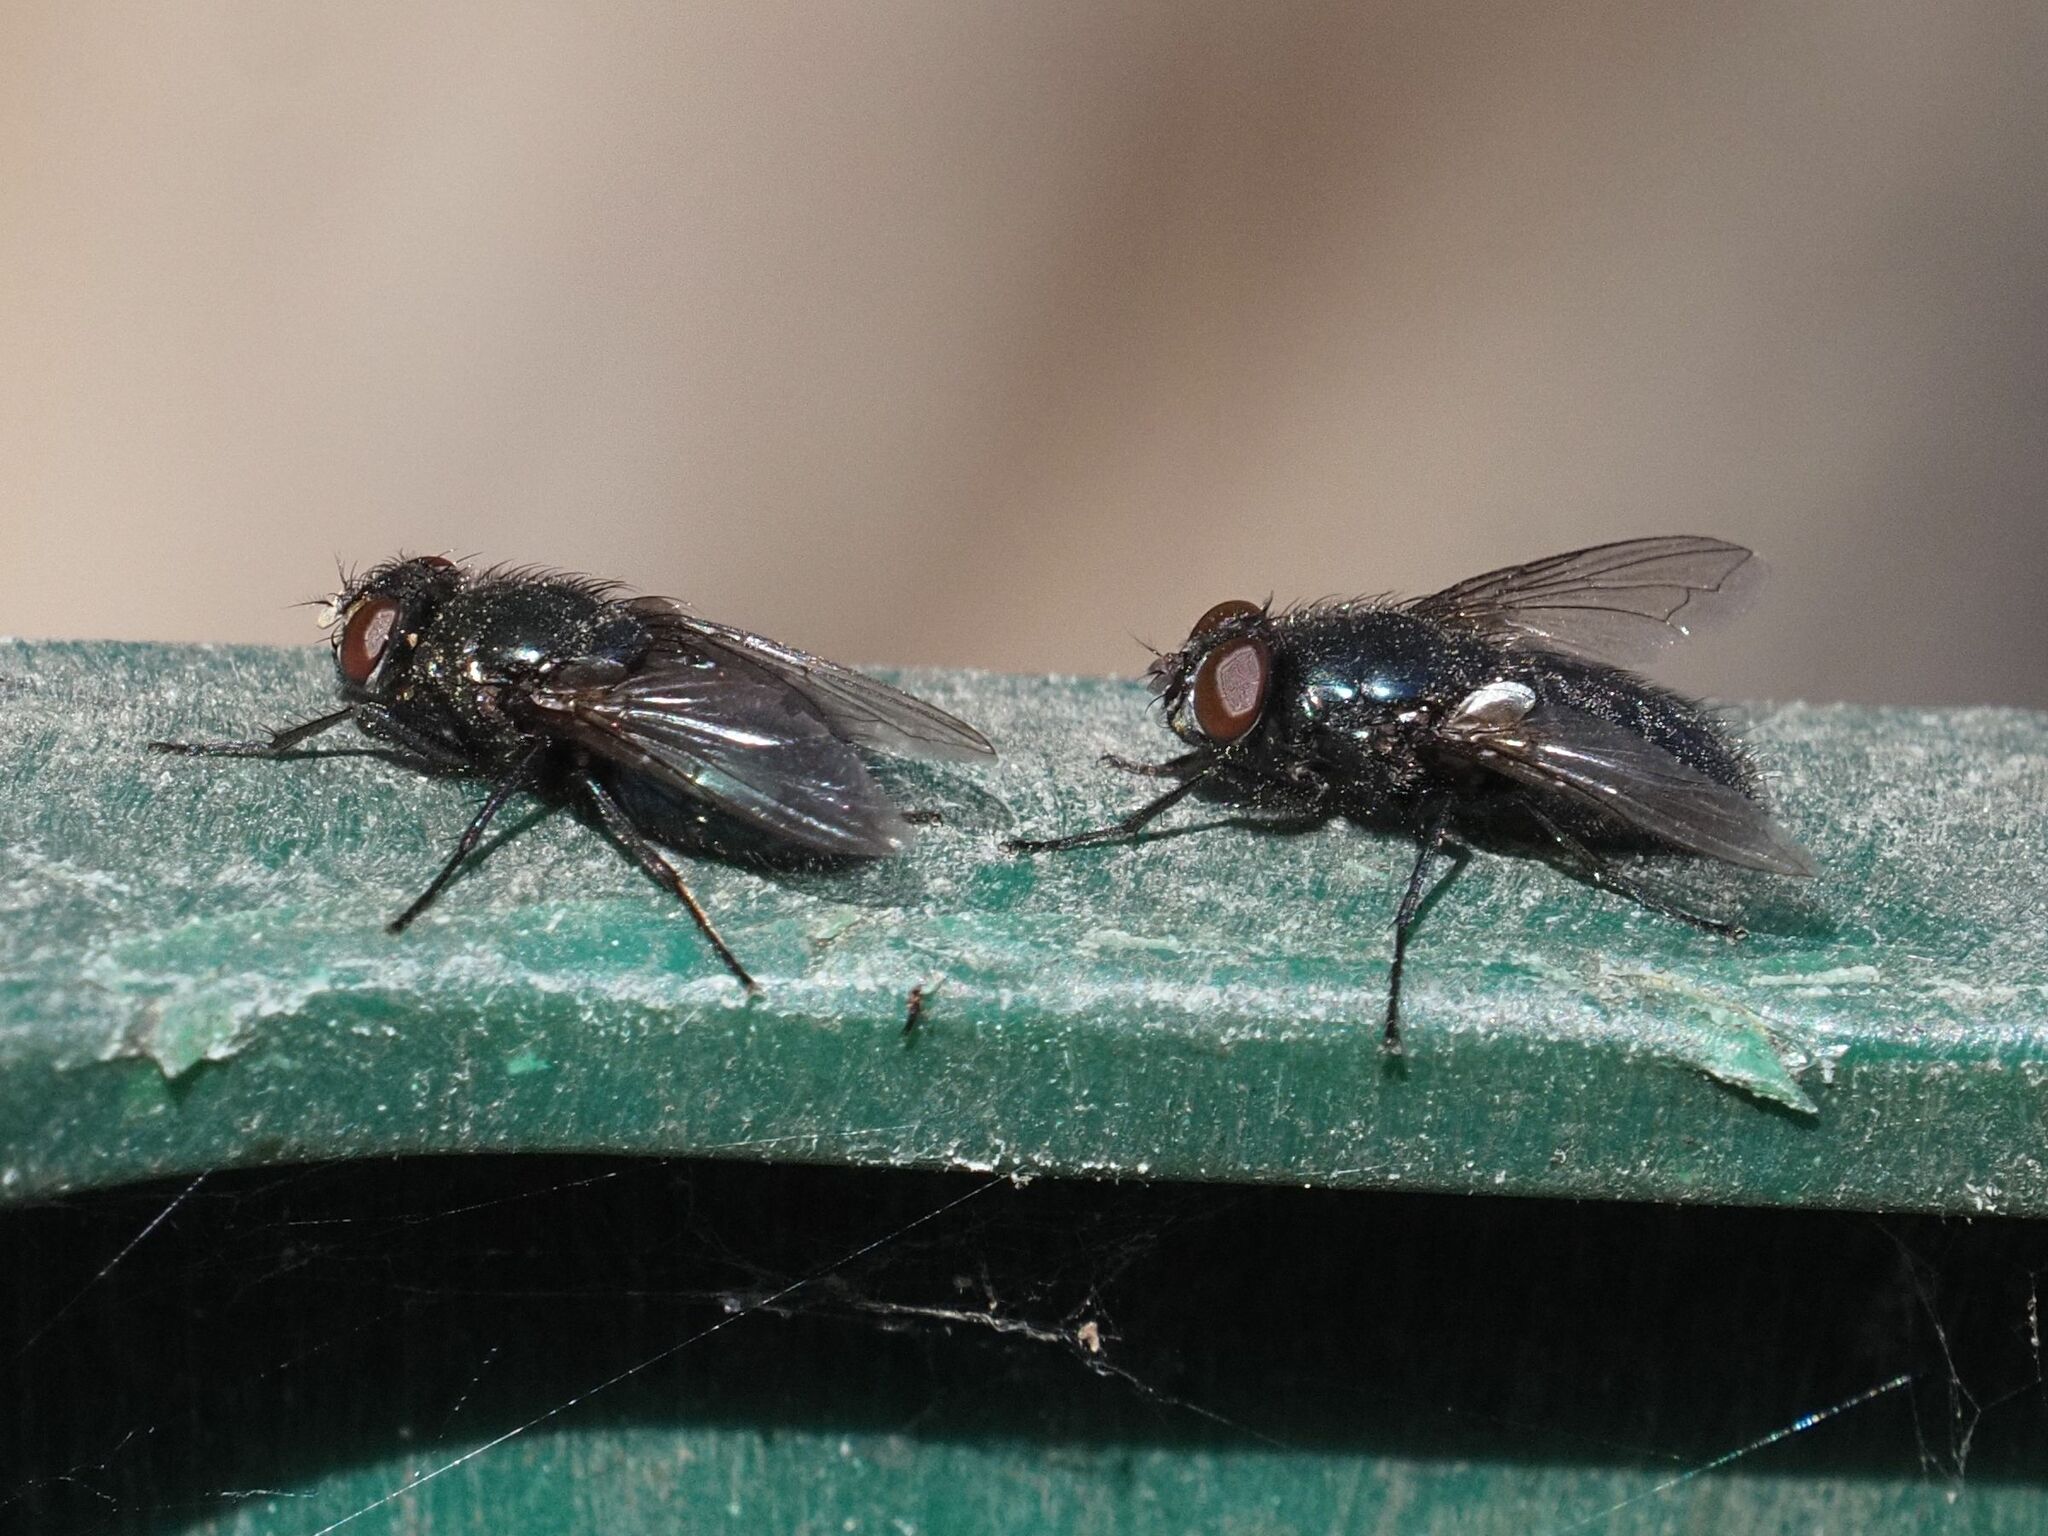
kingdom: Animalia
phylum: Arthropoda
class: Insecta
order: Diptera
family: Calliphoridae
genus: Protophormia
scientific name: Protophormia terraenovae
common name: Blackbottle
